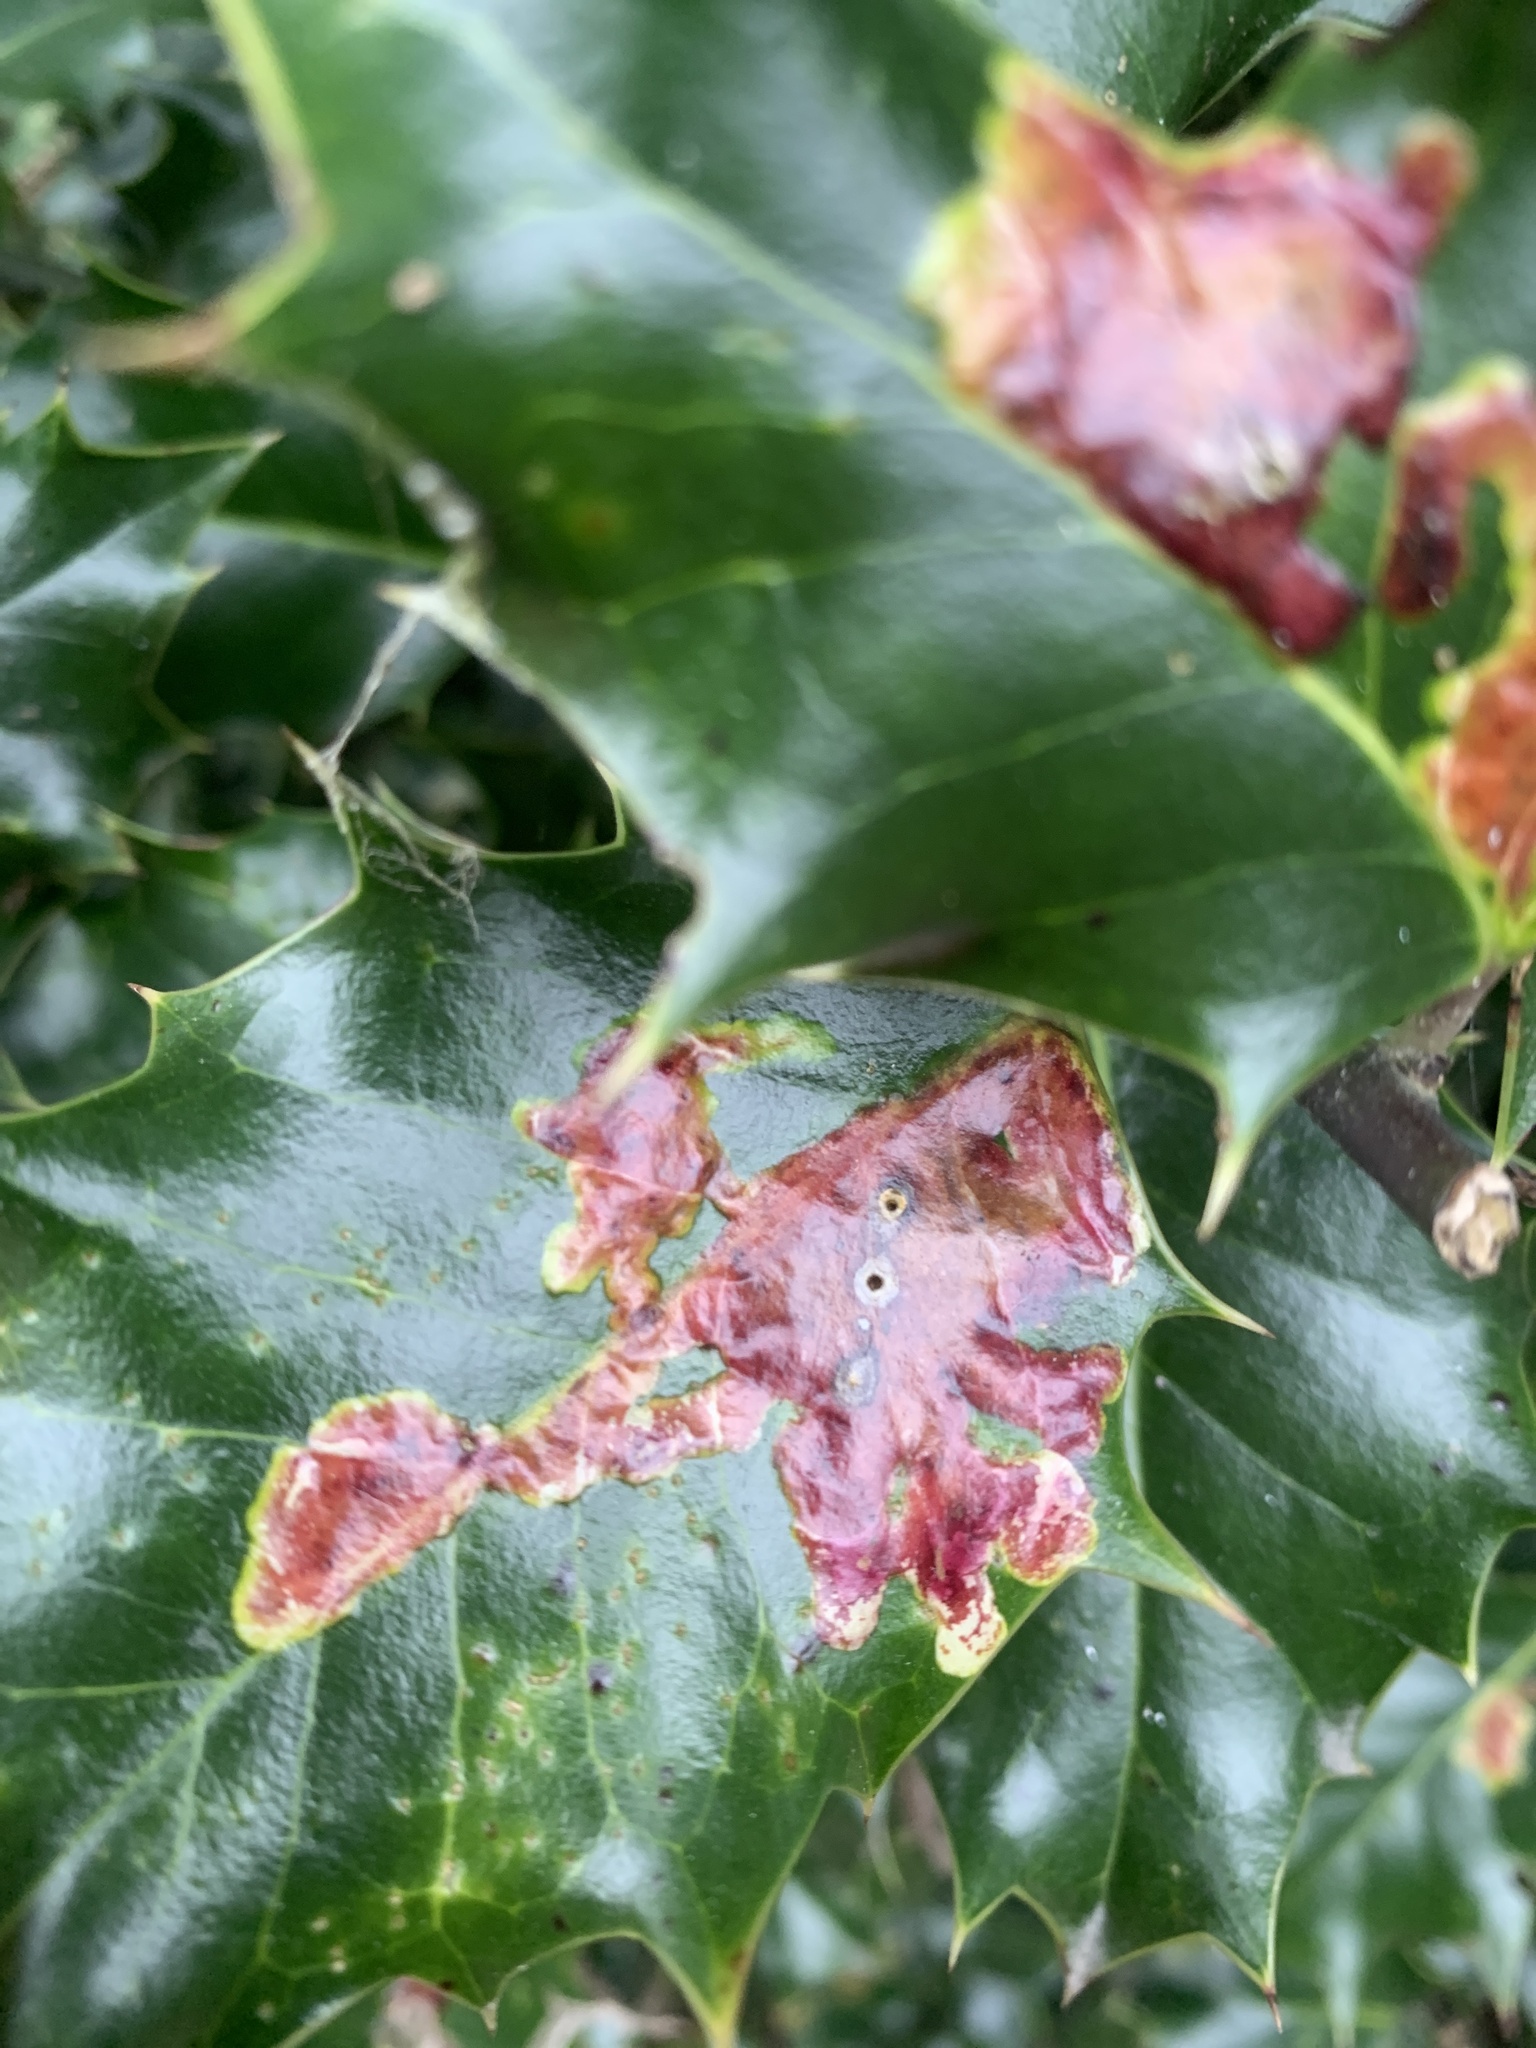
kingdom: Animalia
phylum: Arthropoda
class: Insecta
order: Diptera
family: Agromyzidae
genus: Phytomyza
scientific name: Phytomyza ilicis
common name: Holly leafminer
